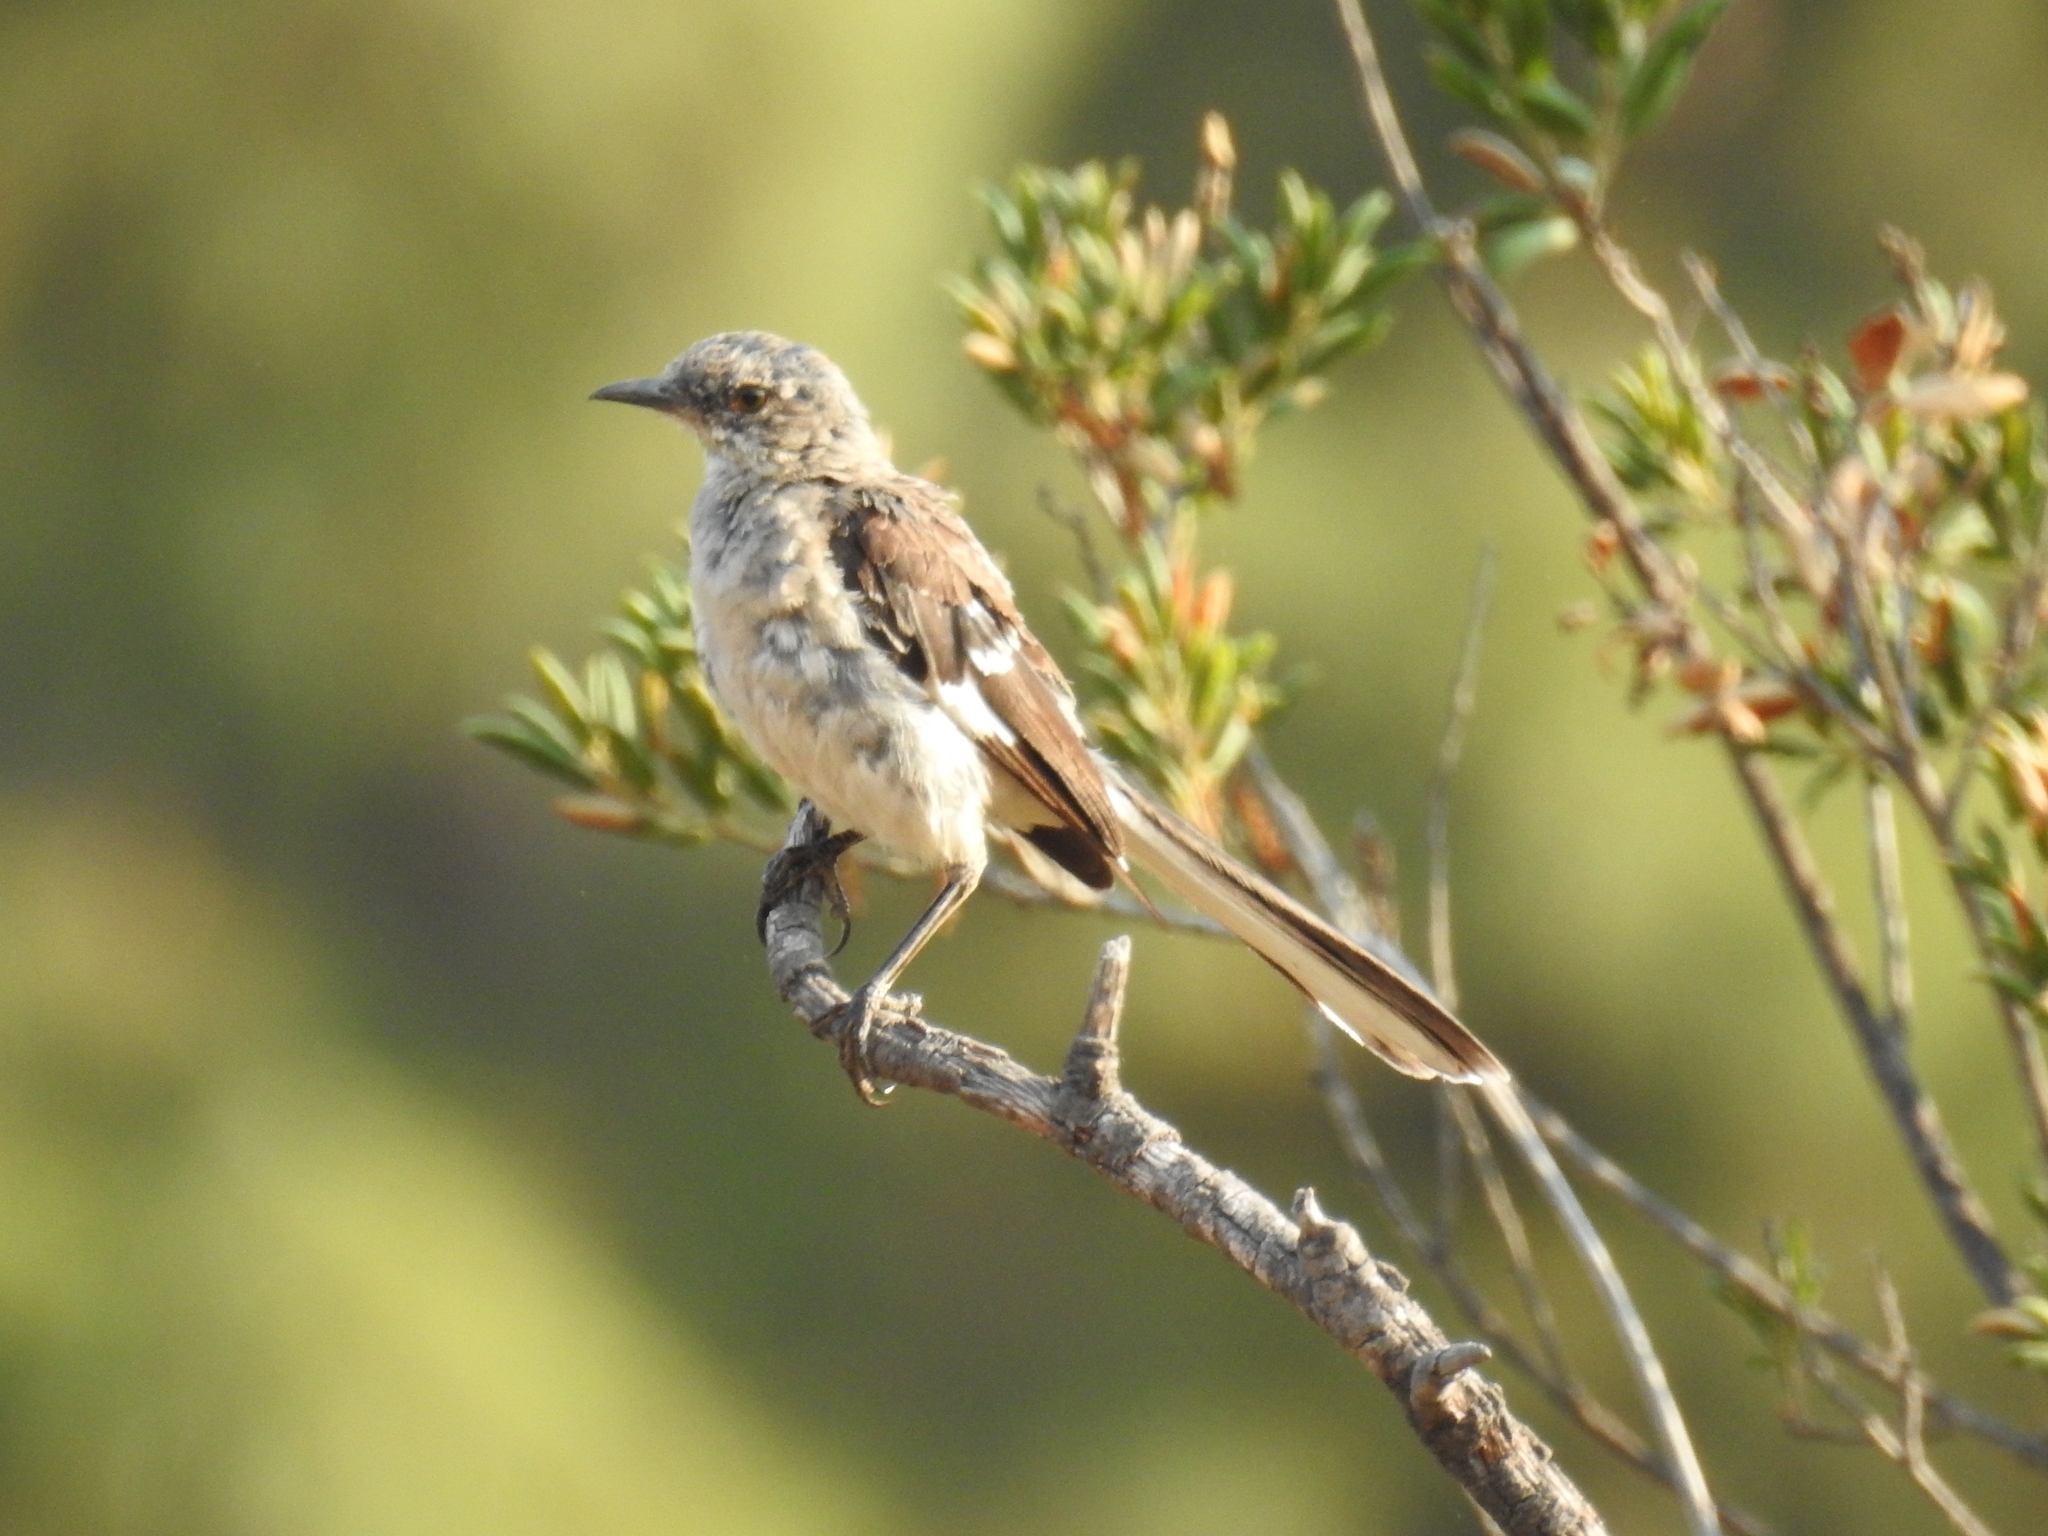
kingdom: Animalia
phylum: Chordata
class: Aves
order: Passeriformes
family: Mimidae
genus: Mimus
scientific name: Mimus polyglottos
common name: Northern mockingbird
